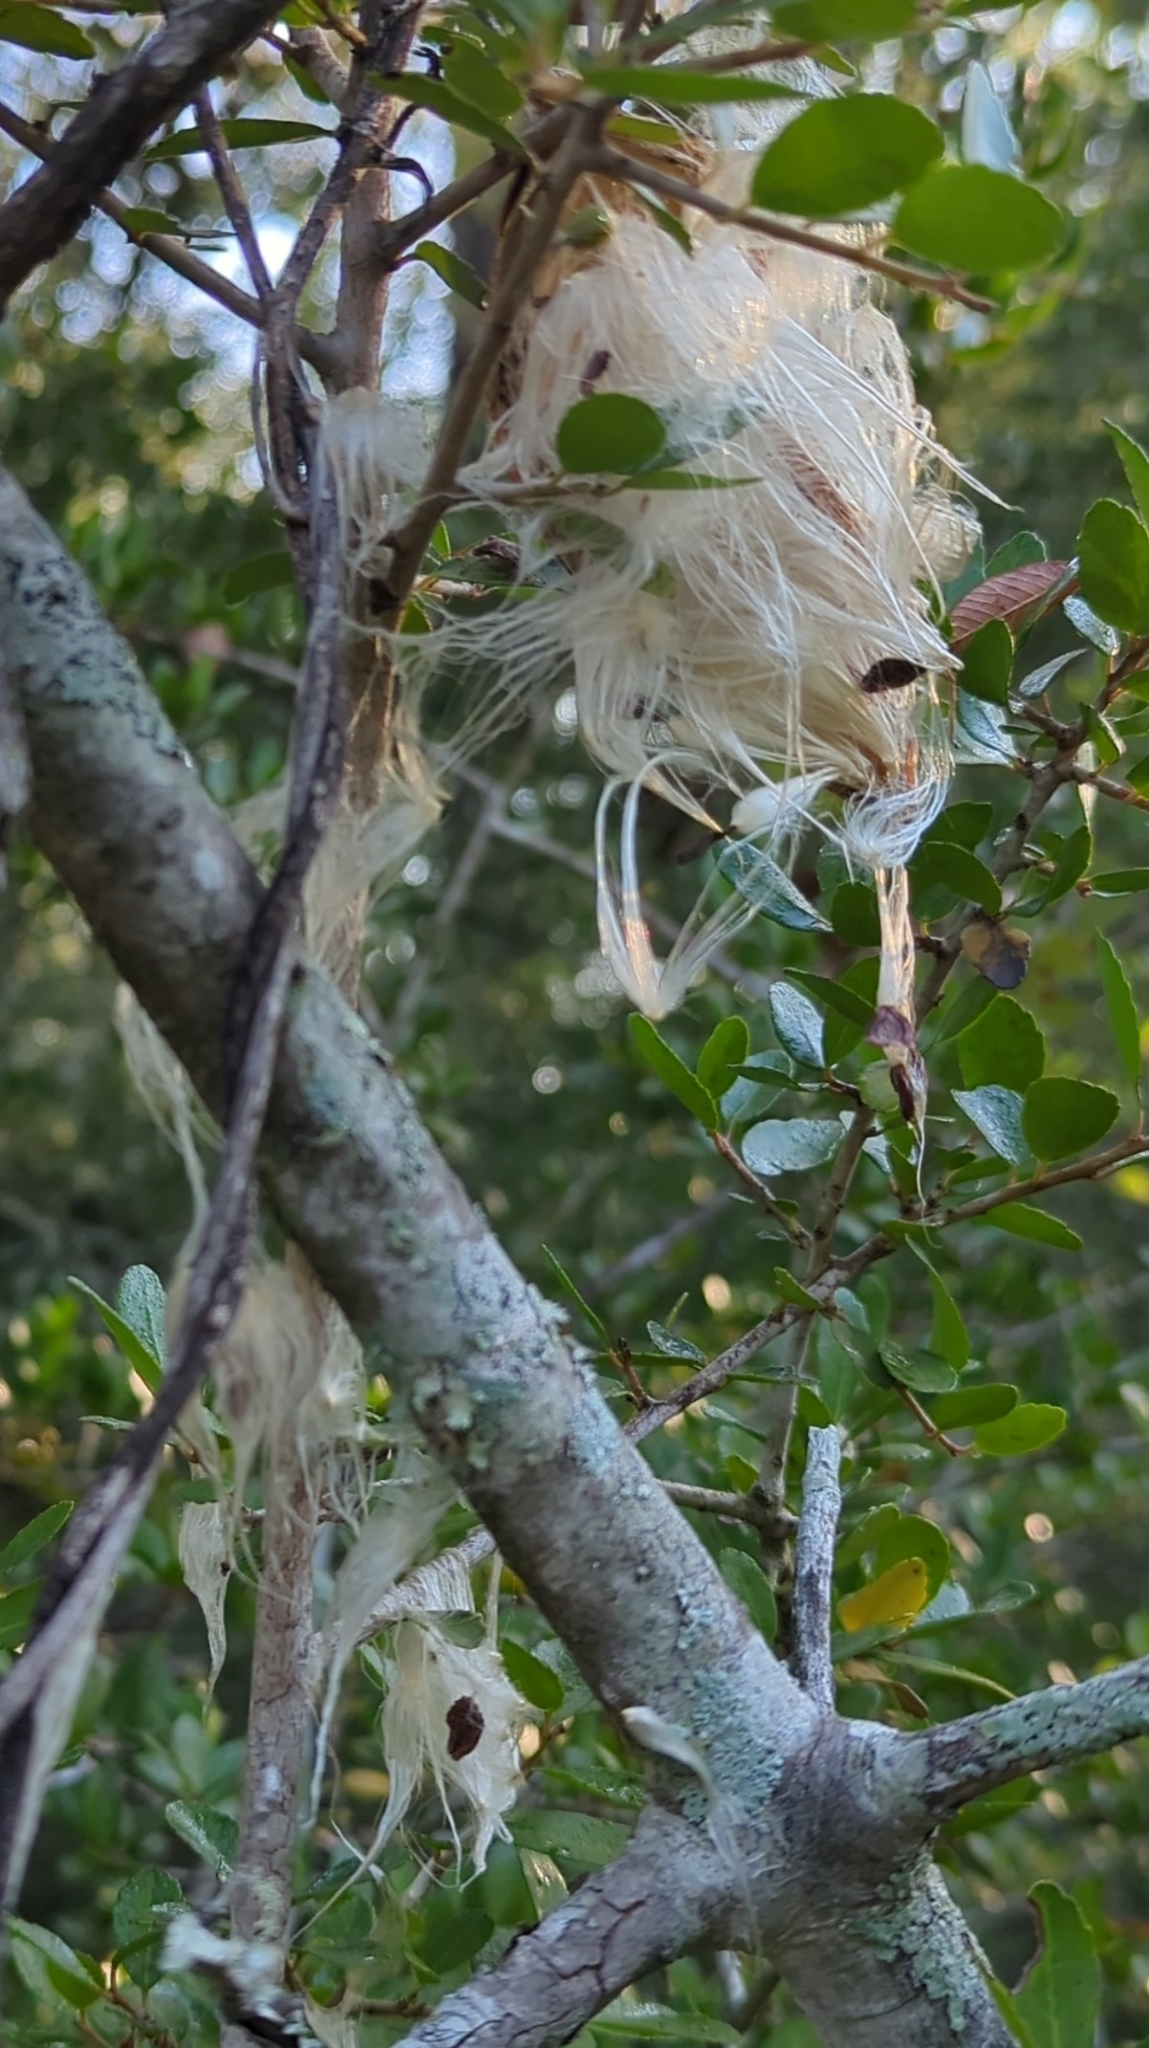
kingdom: Plantae
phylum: Tracheophyta
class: Magnoliopsida
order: Gentianales
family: Apocynaceae
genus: Gonolobus
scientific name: Gonolobus suberosus
